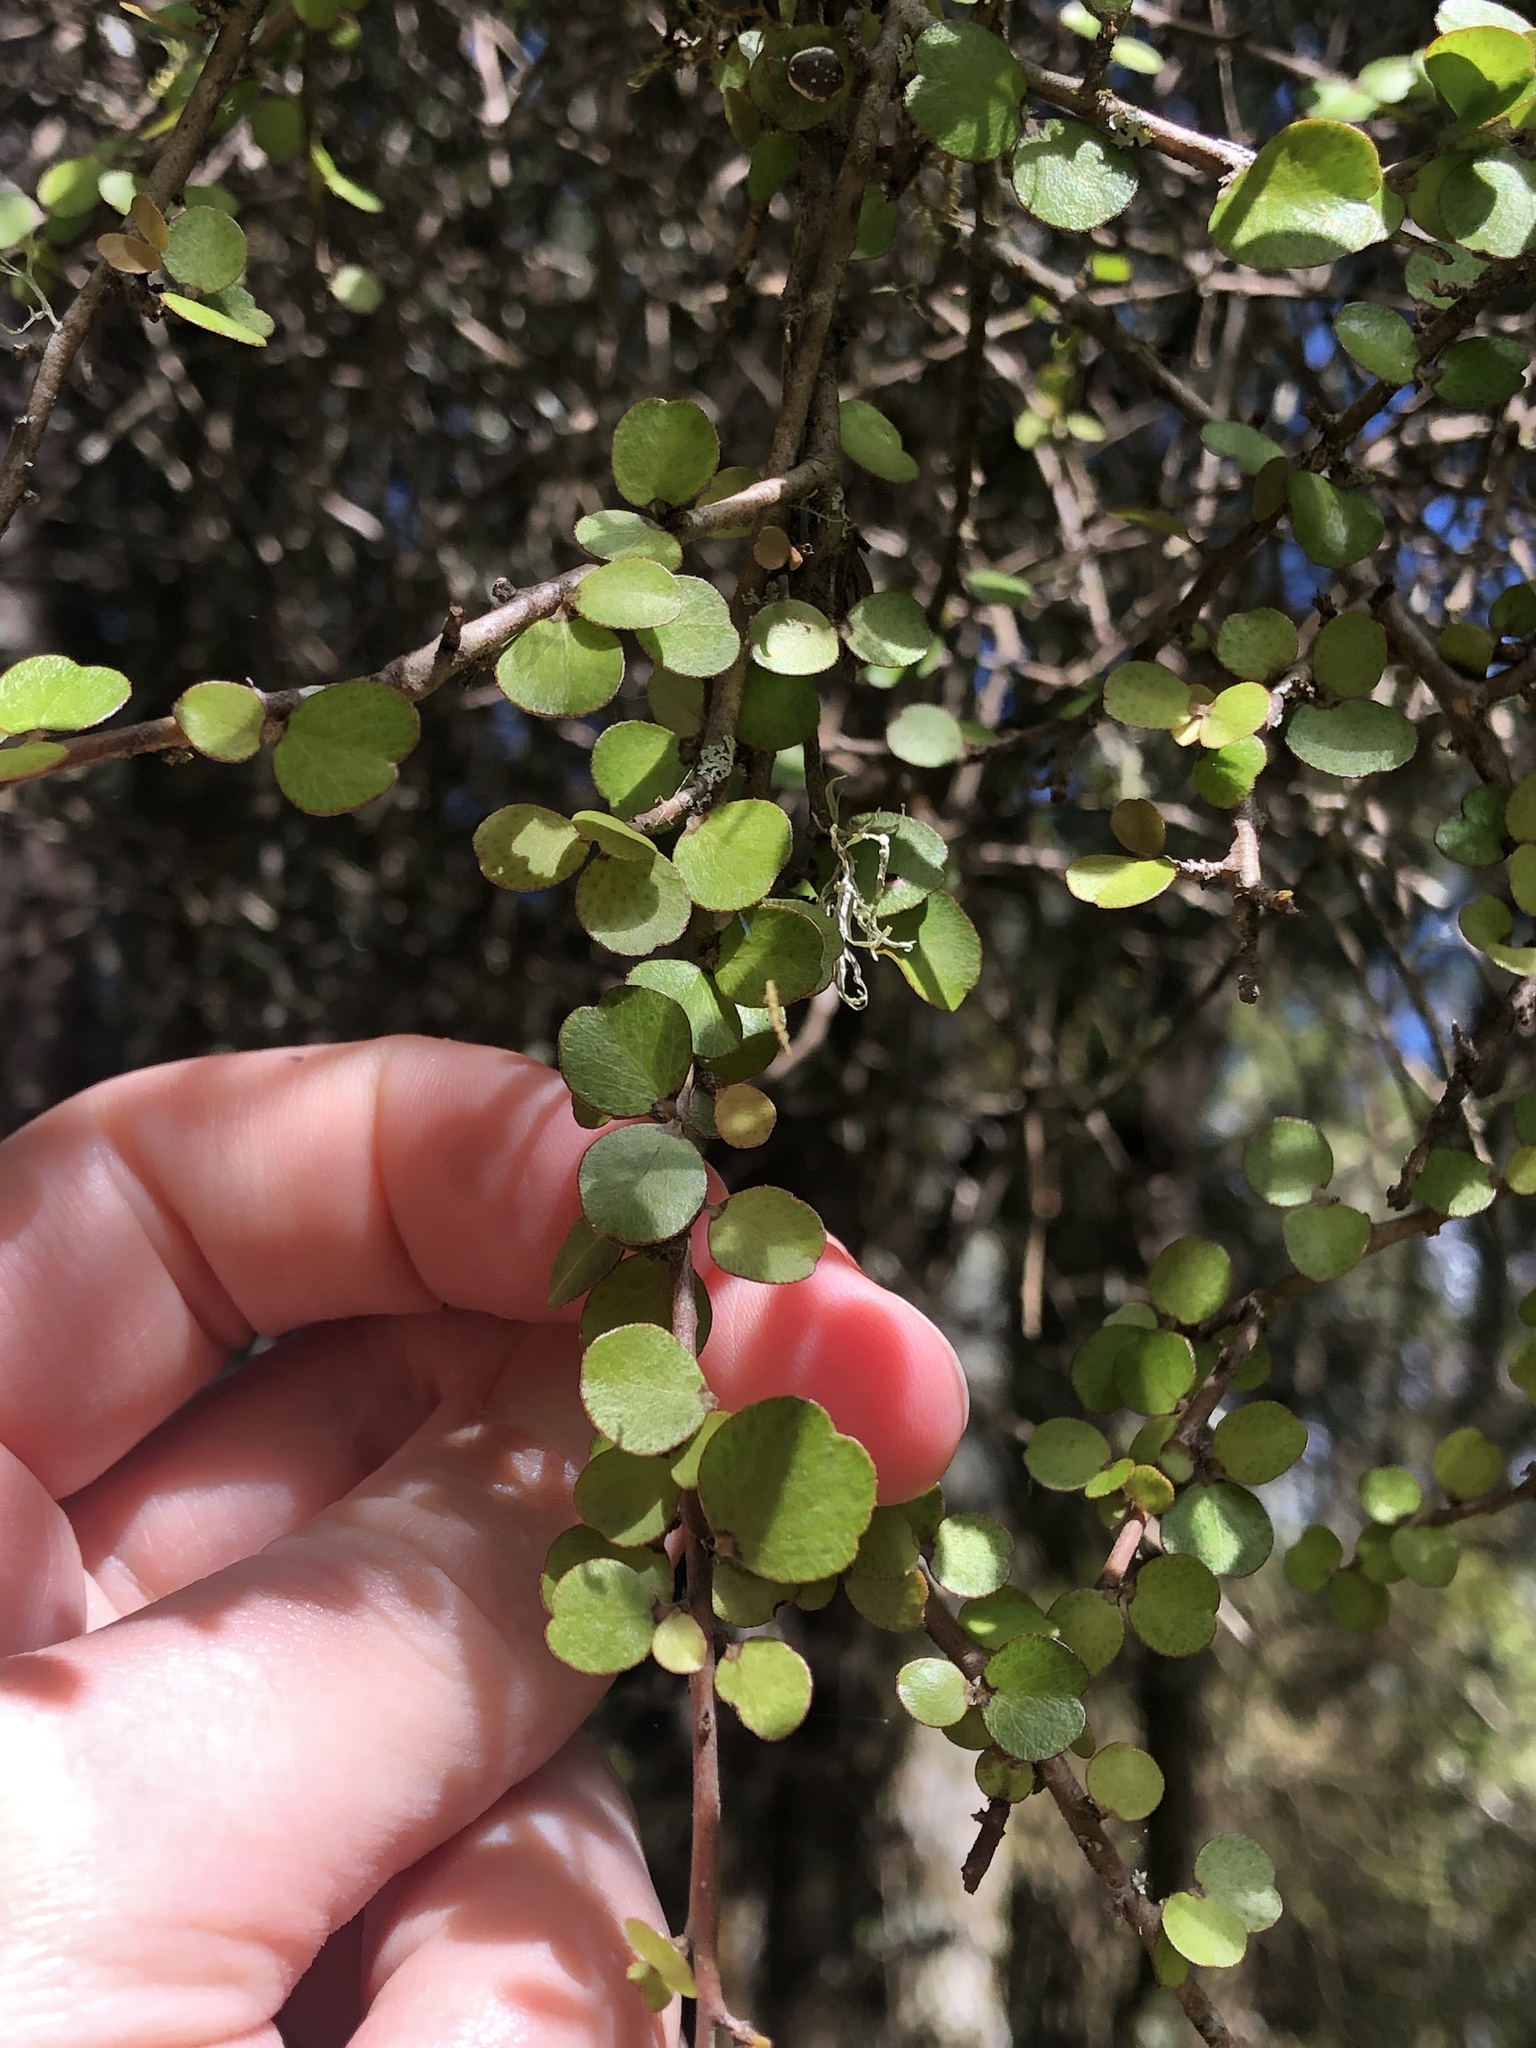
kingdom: Plantae
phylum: Tracheophyta
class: Magnoliopsida
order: Ericales
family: Primulaceae
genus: Myrsine
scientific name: Myrsine divaricata
